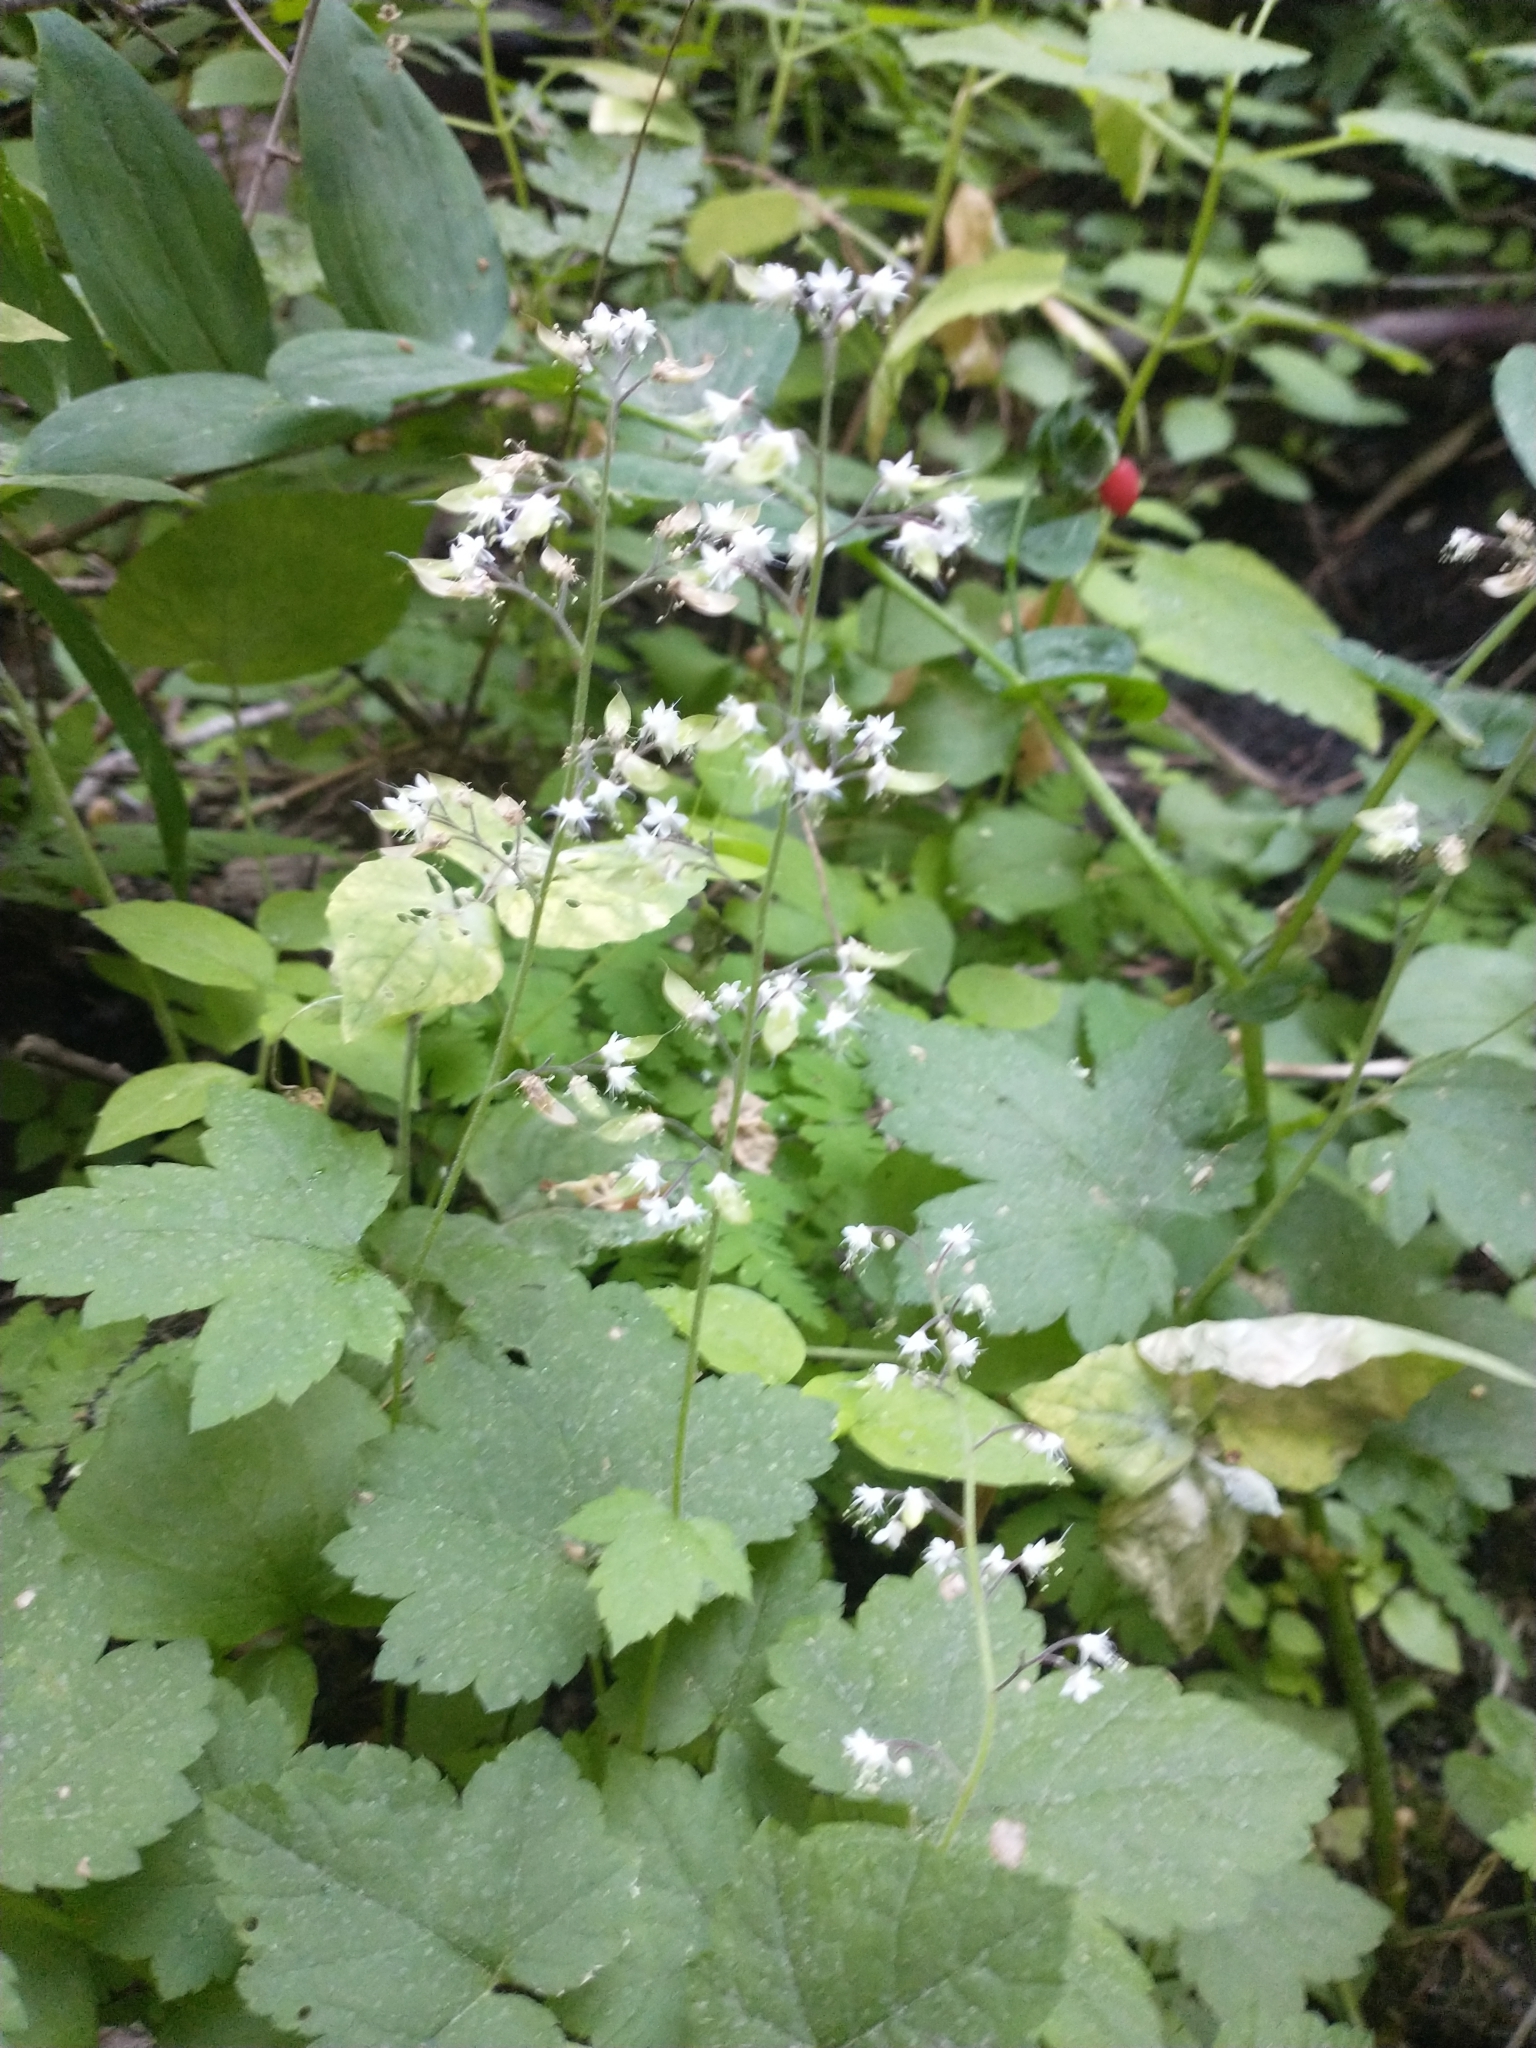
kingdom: Plantae
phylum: Tracheophyta
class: Magnoliopsida
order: Saxifragales
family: Saxifragaceae
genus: Tiarella
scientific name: Tiarella trifoliata
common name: Sugar-scoop
